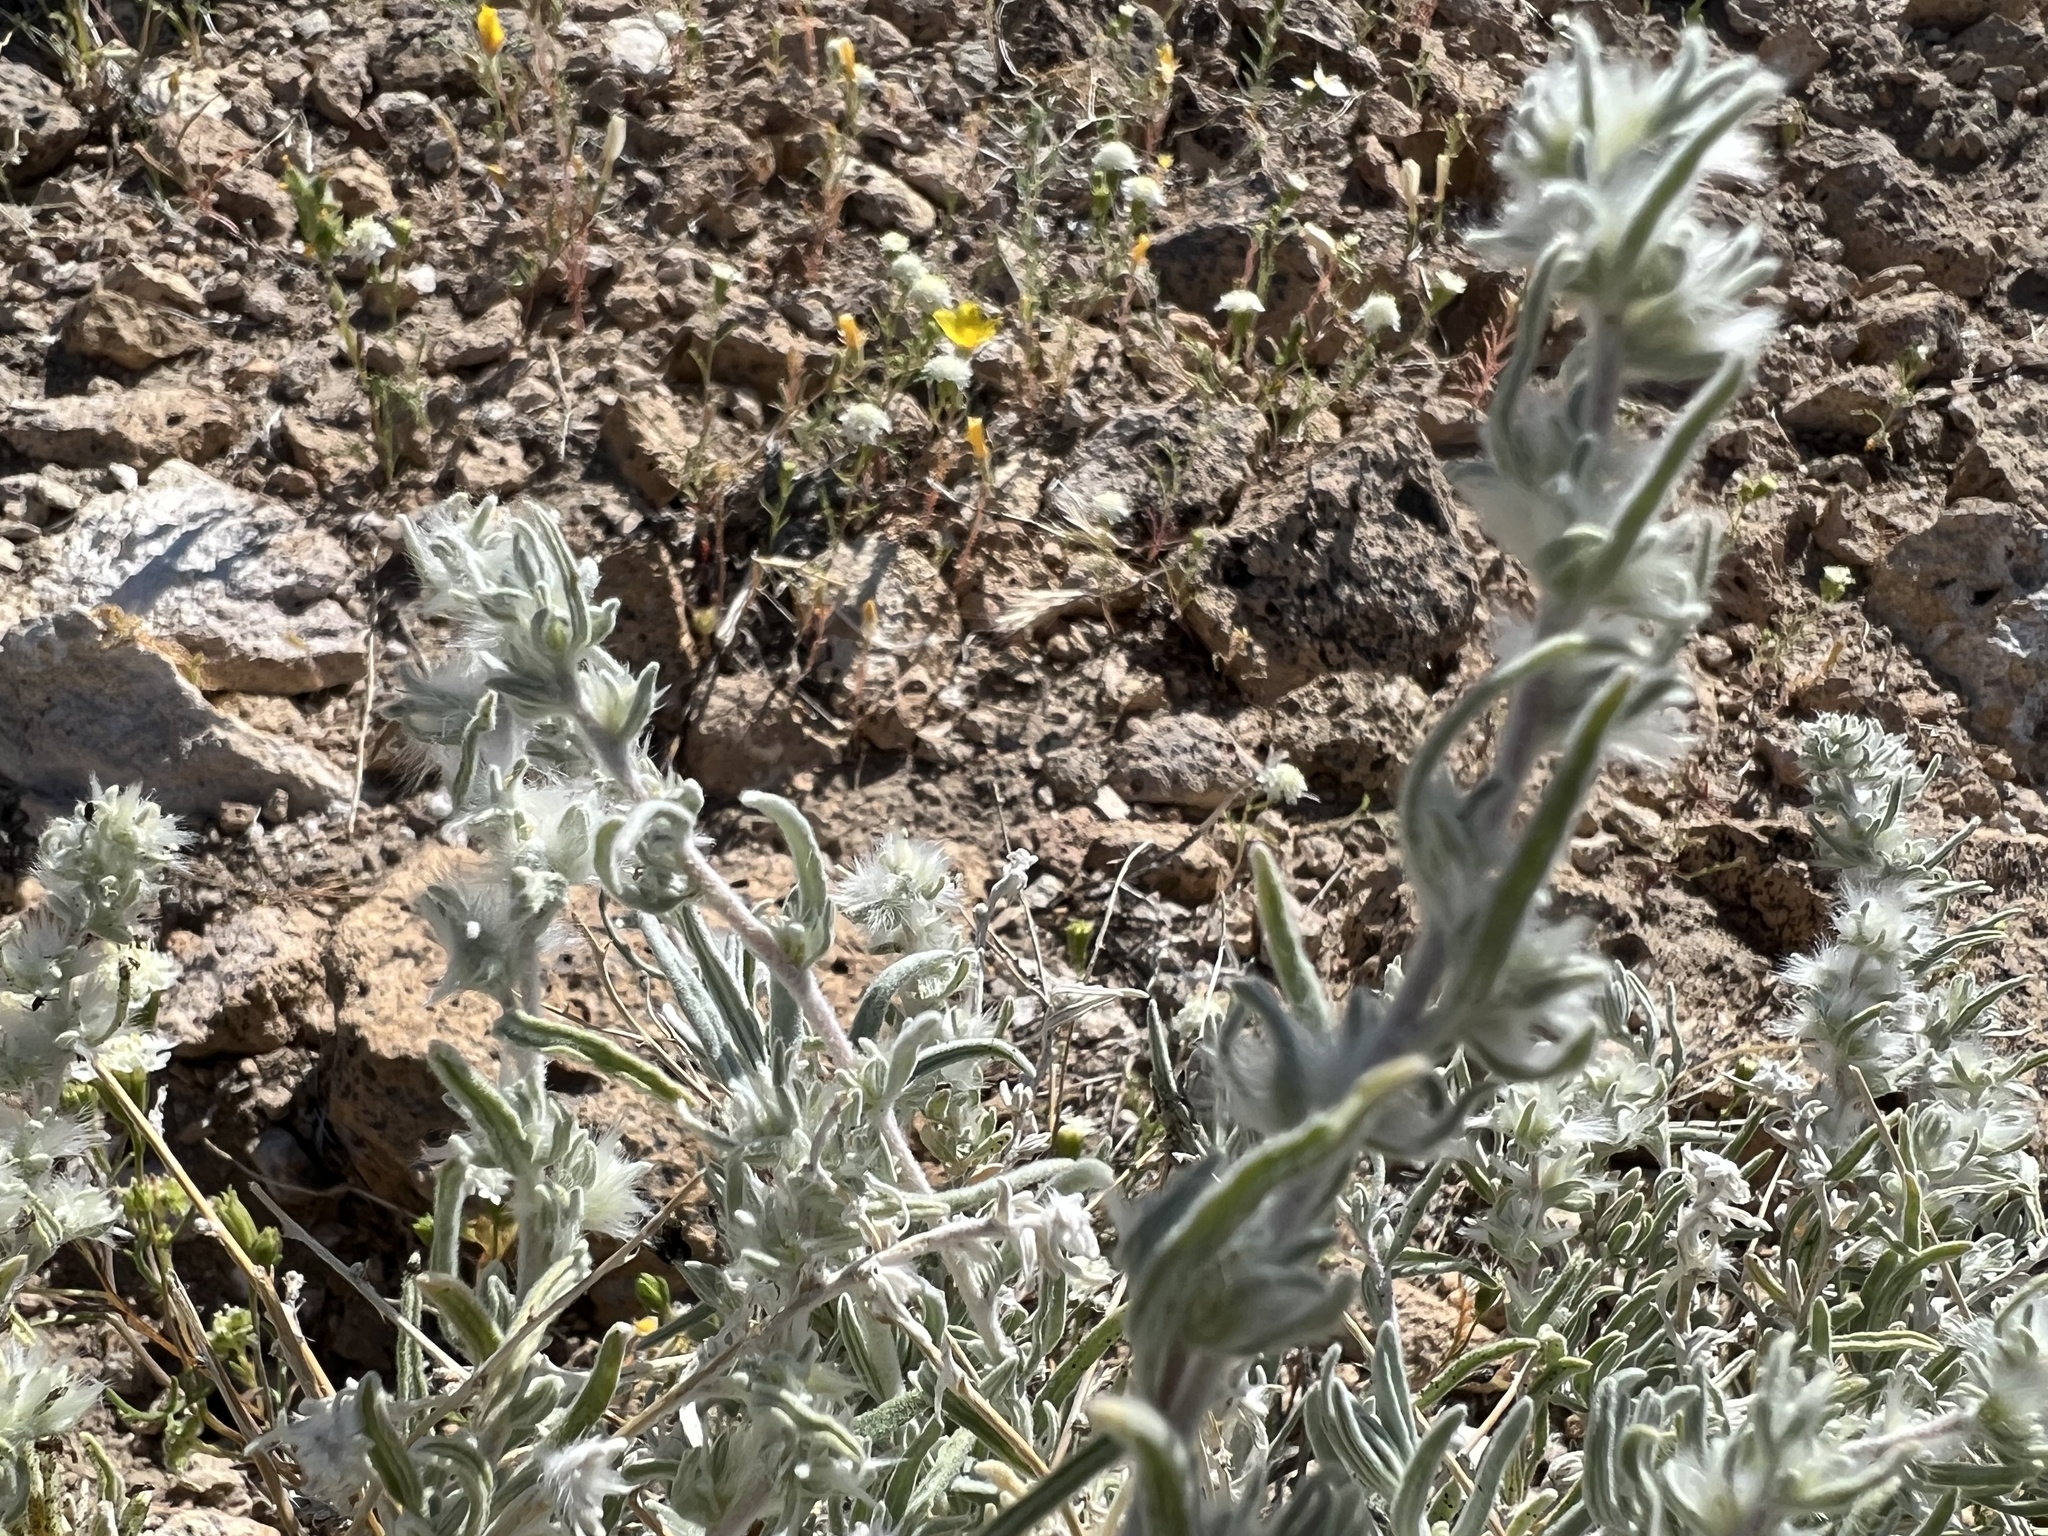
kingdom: Plantae
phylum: Tracheophyta
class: Magnoliopsida
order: Caryophyllales
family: Amaranthaceae
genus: Krascheninnikovia
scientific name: Krascheninnikovia lanata
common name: Winterfat
